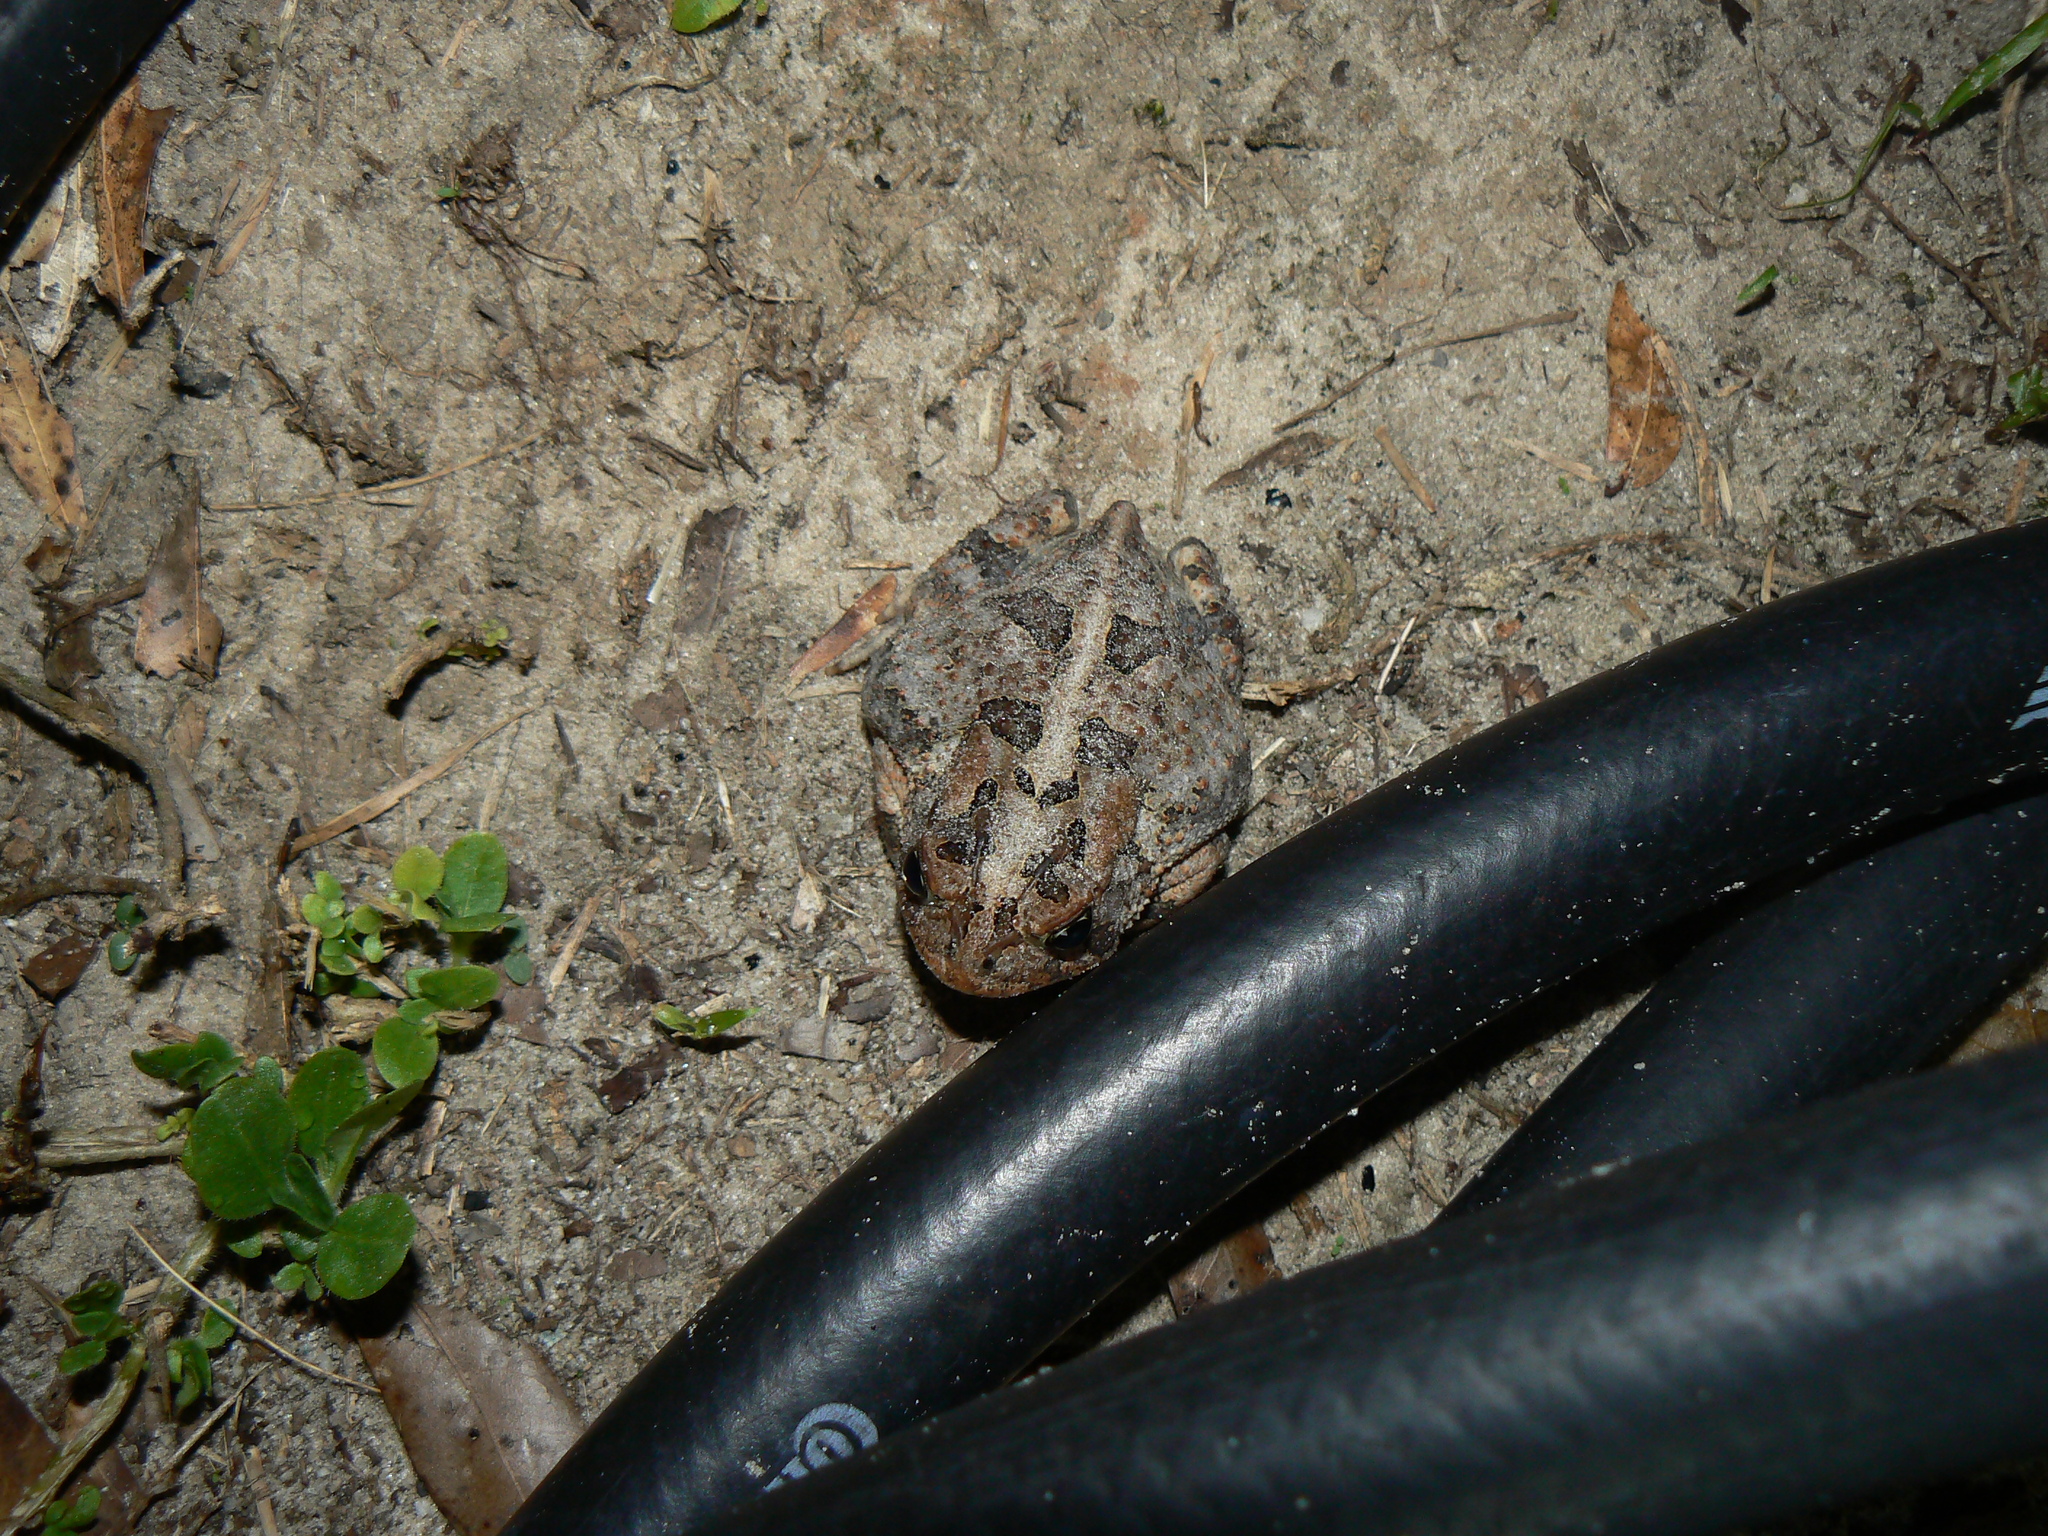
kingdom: Animalia
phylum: Chordata
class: Amphibia
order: Anura
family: Bufonidae
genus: Anaxyrus
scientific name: Anaxyrus terrestris
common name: Southern toad
